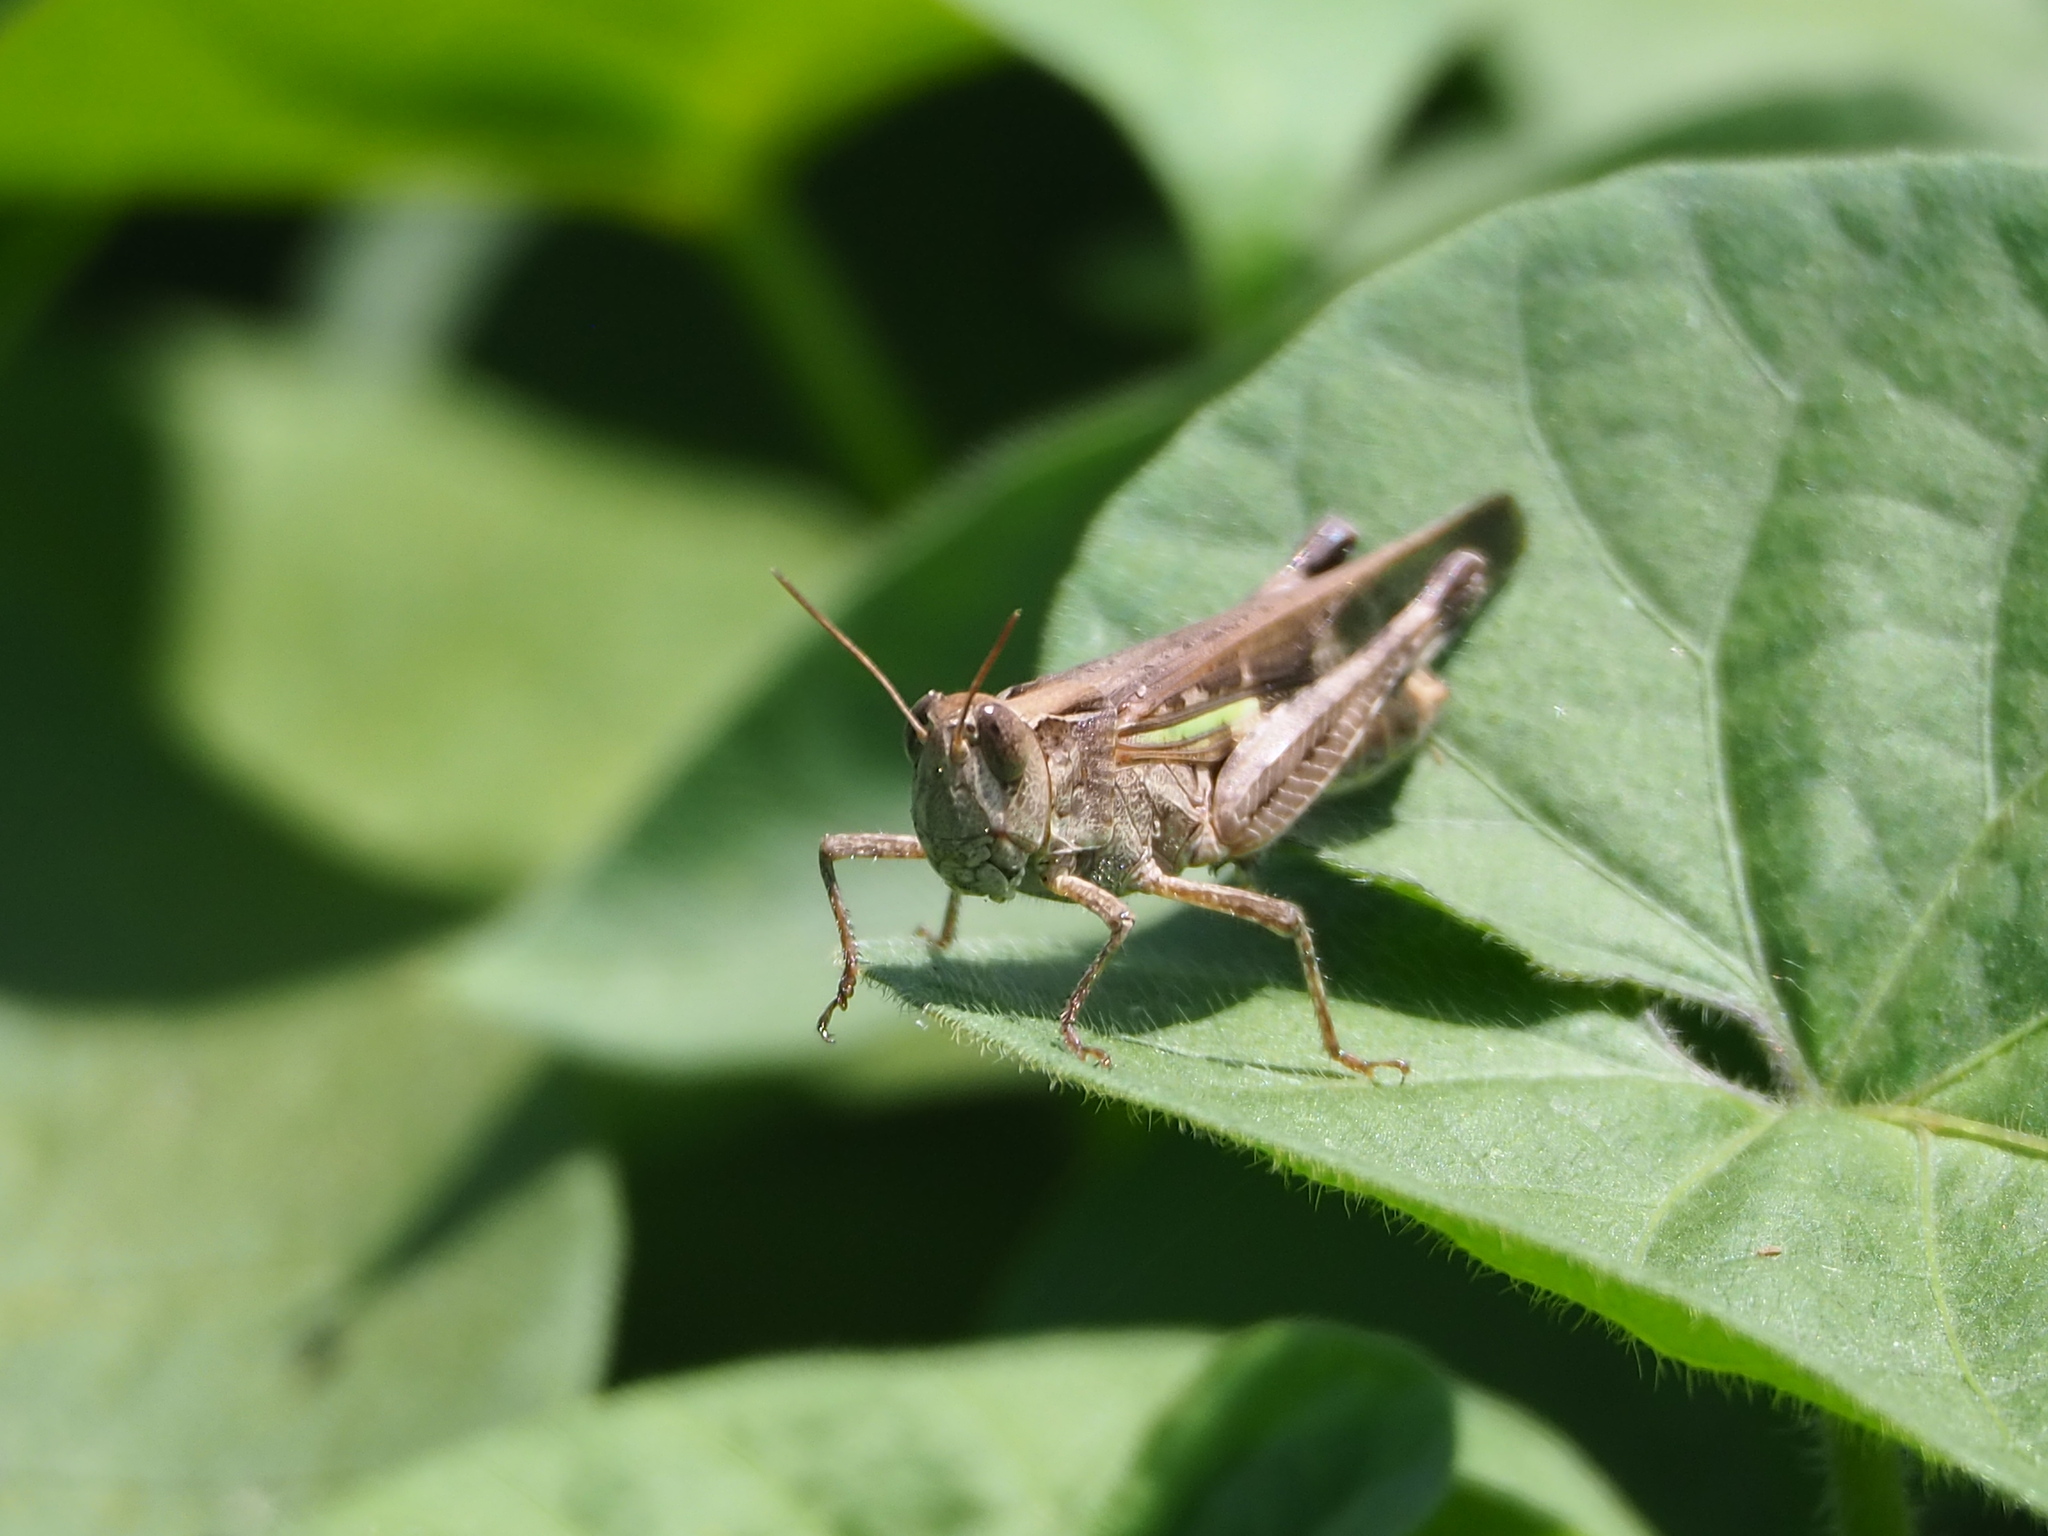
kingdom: Animalia
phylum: Arthropoda
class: Insecta
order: Orthoptera
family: Acrididae
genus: Aiolopus
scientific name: Aiolopus thalassinus
